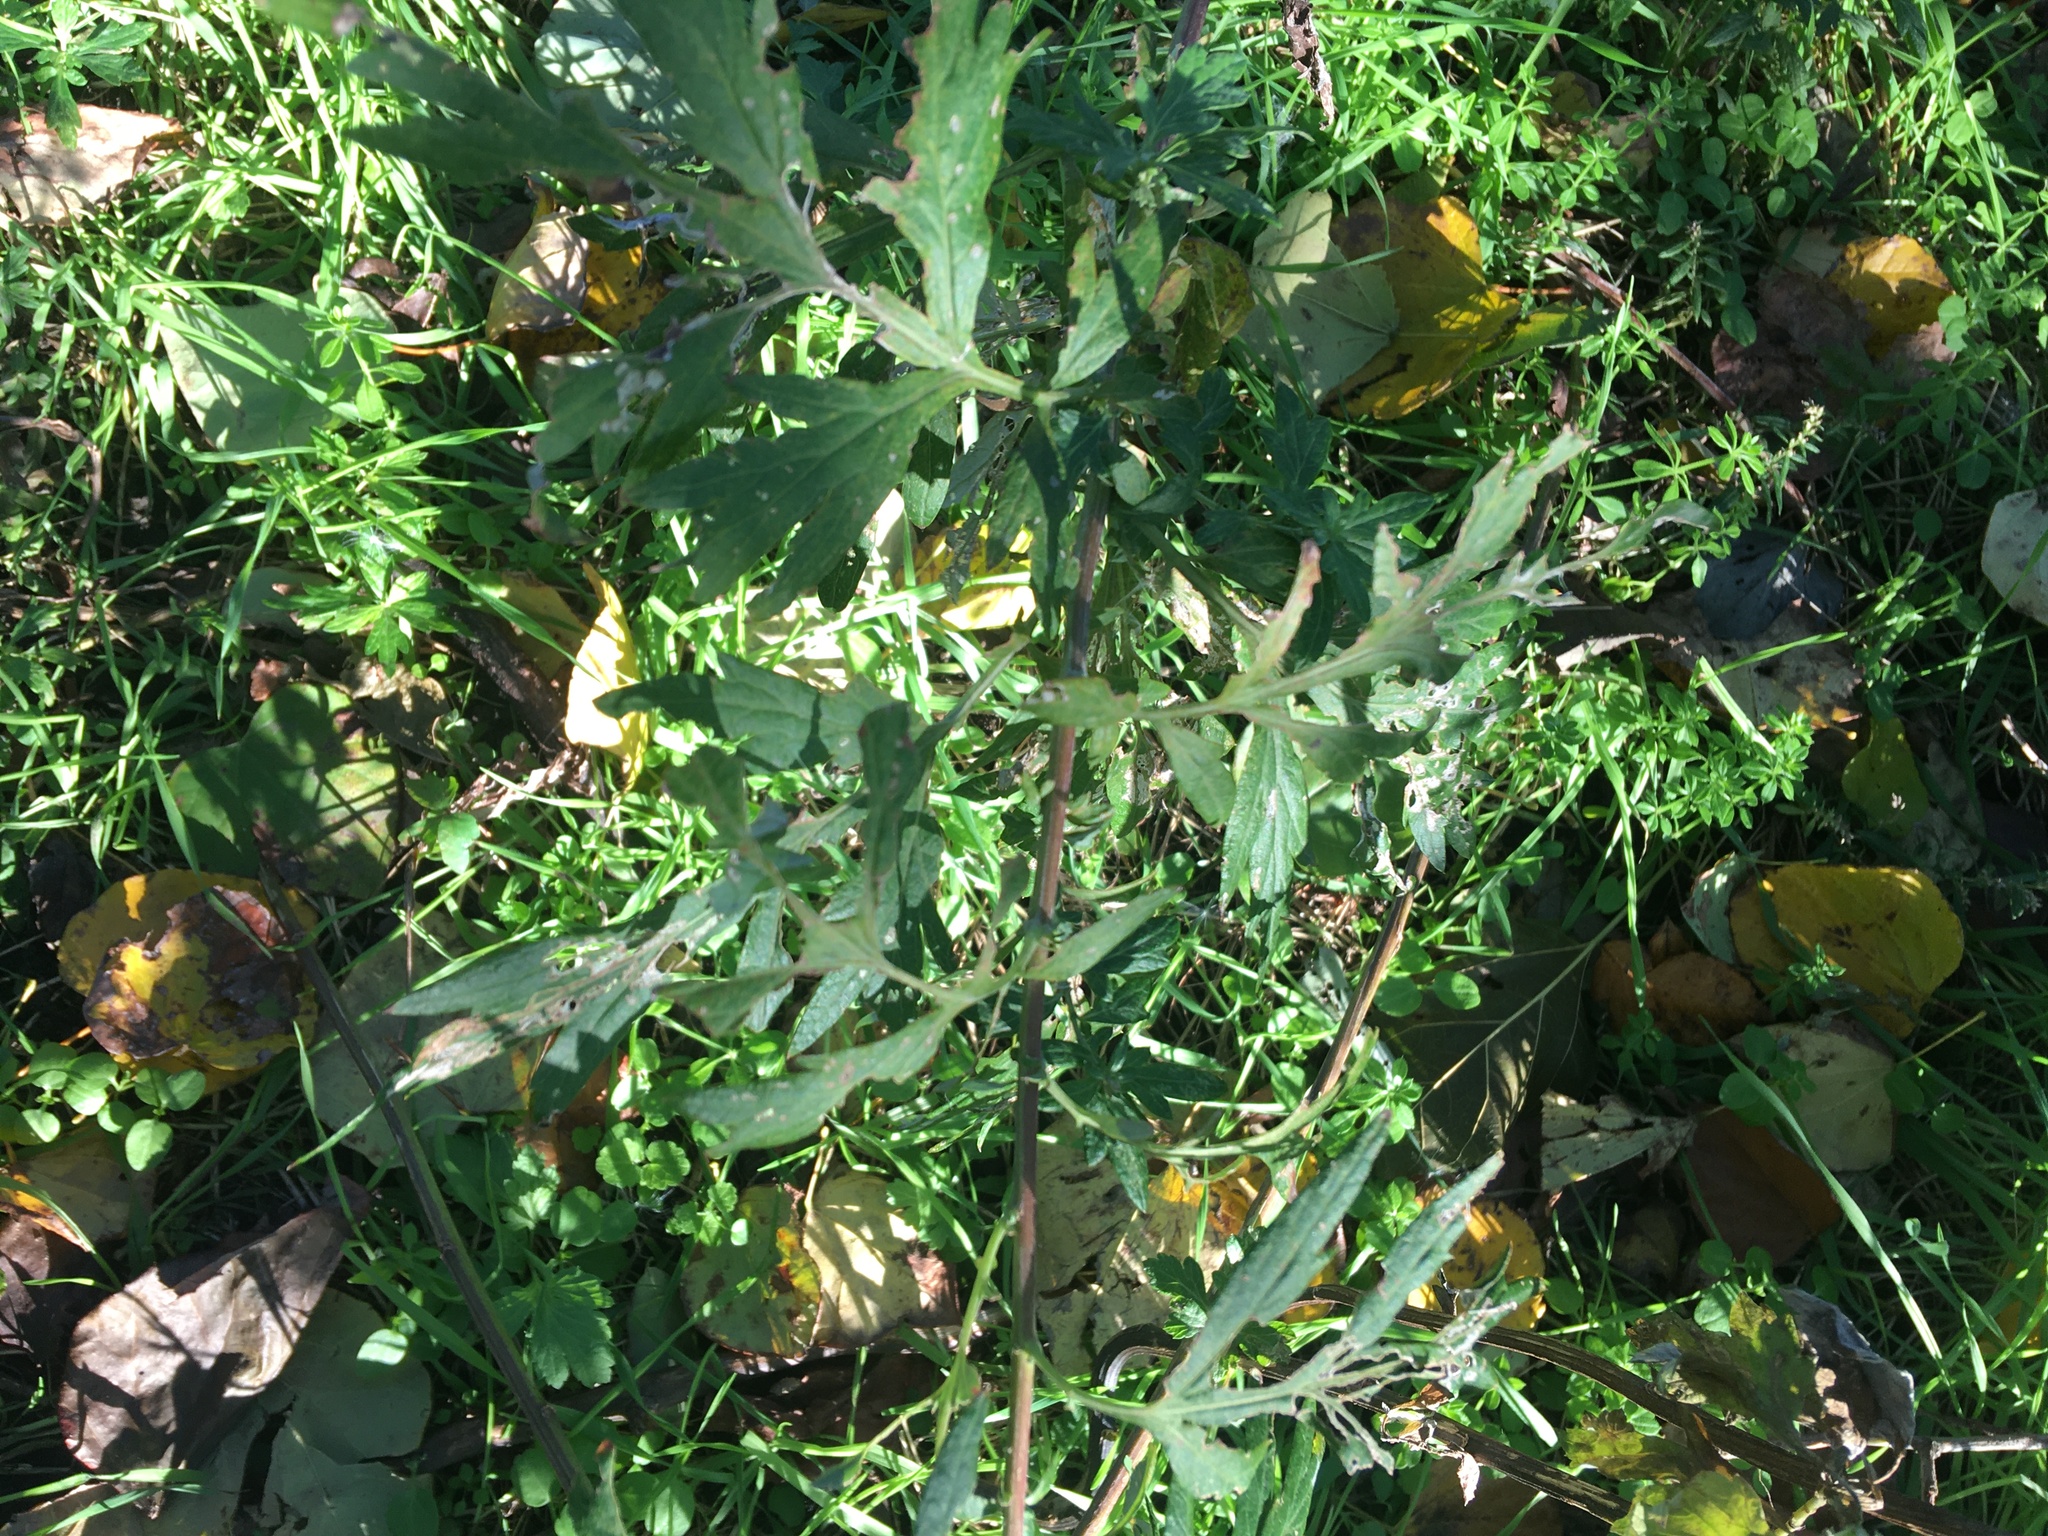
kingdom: Plantae
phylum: Tracheophyta
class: Magnoliopsida
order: Asterales
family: Asteraceae
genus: Artemisia
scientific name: Artemisia vulgaris
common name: Mugwort
